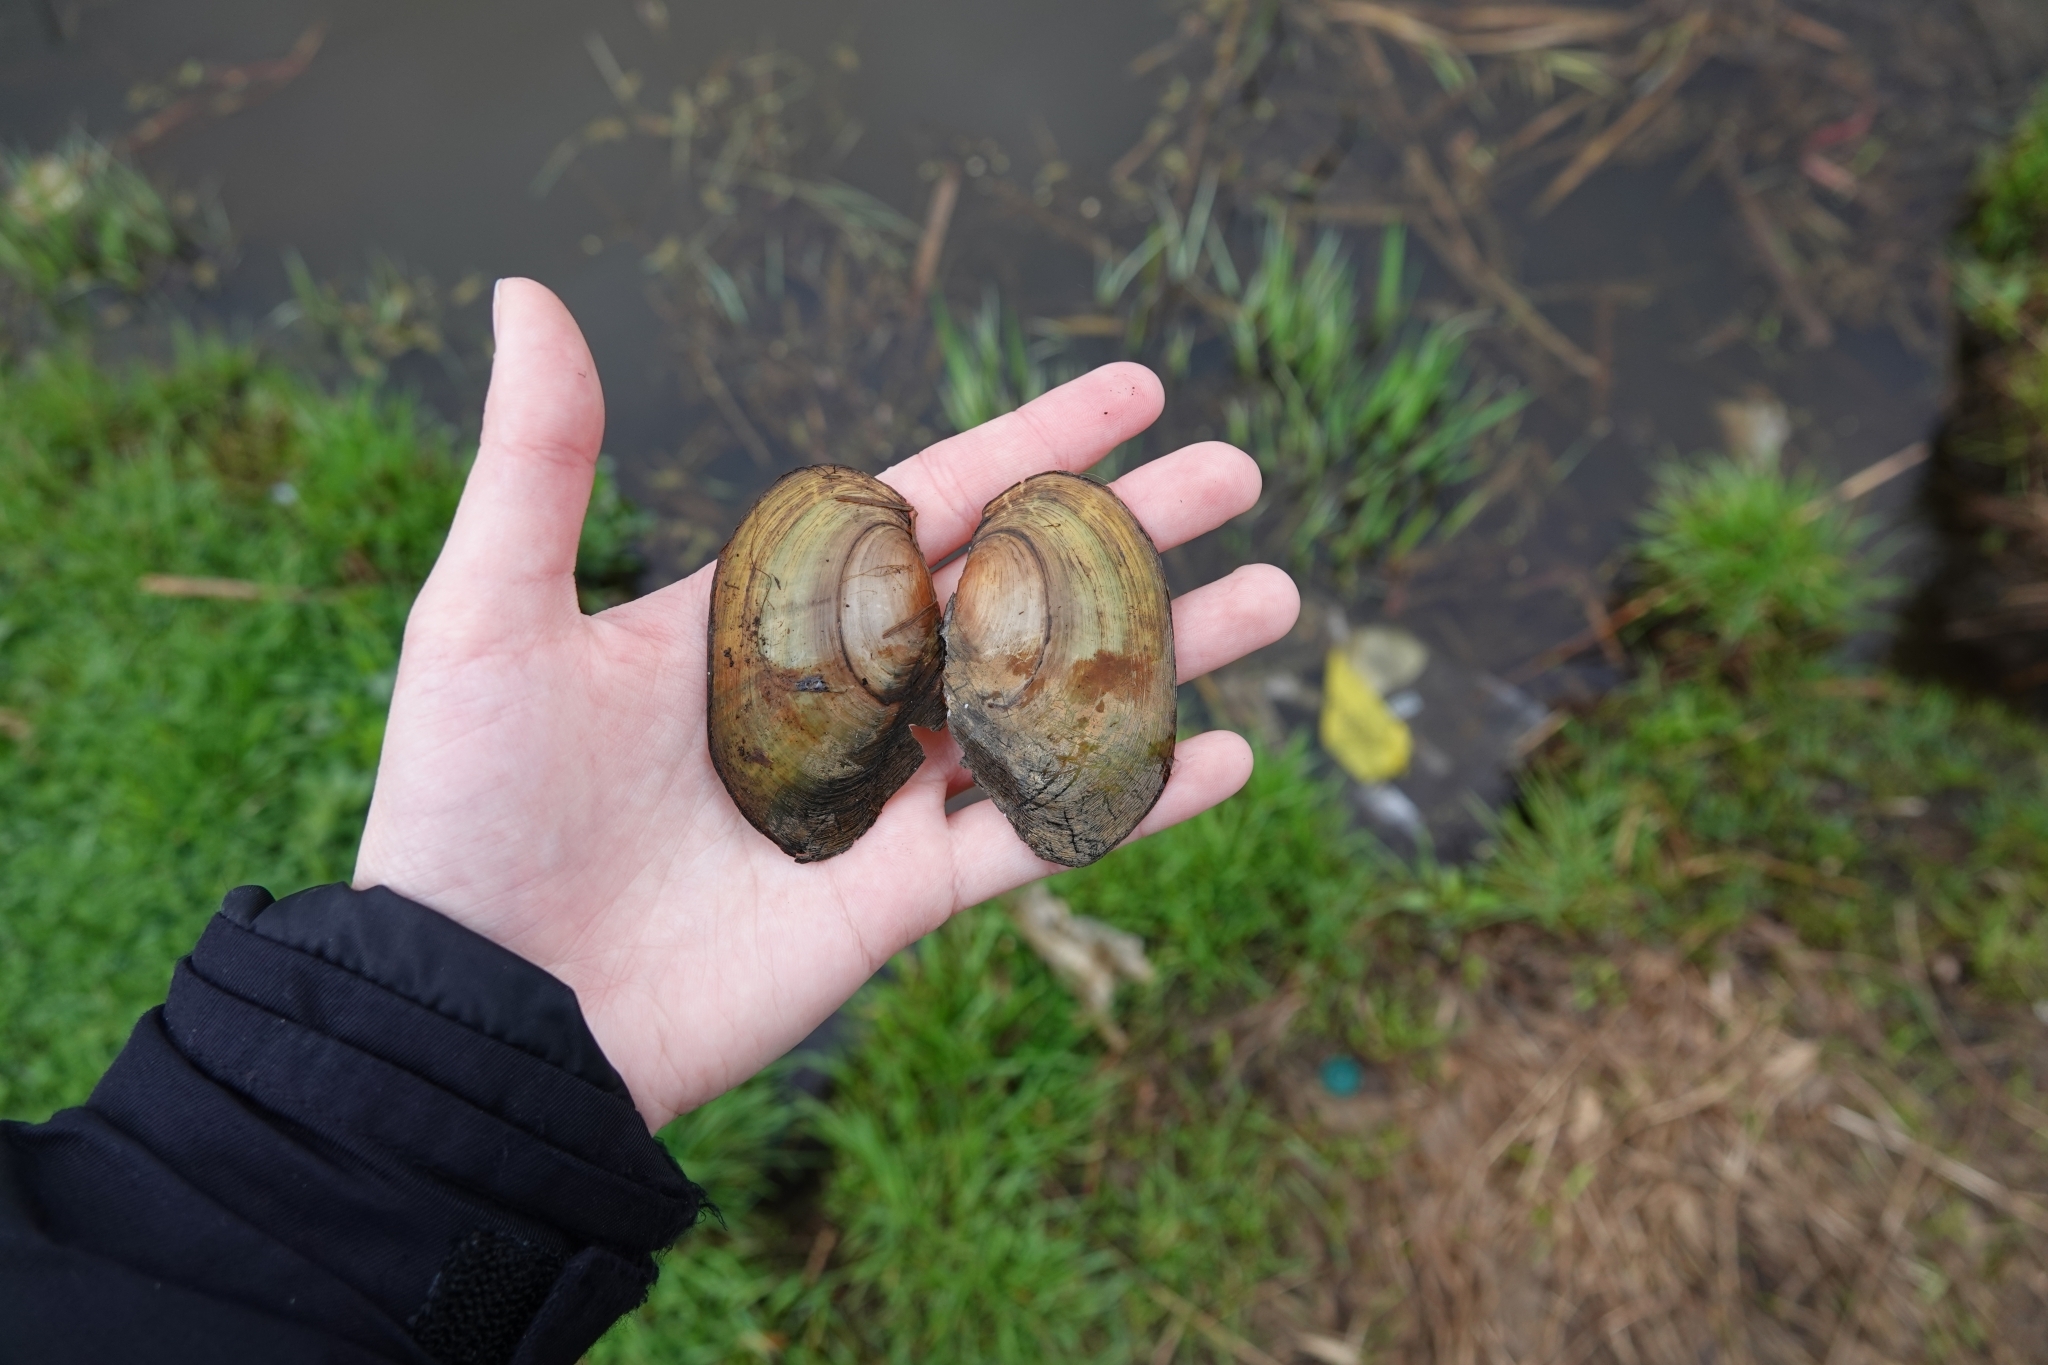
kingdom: Animalia
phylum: Mollusca
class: Bivalvia
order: Unionida
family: Unionidae
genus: Anodonta
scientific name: Anodonta anatina
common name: Duck mussel
